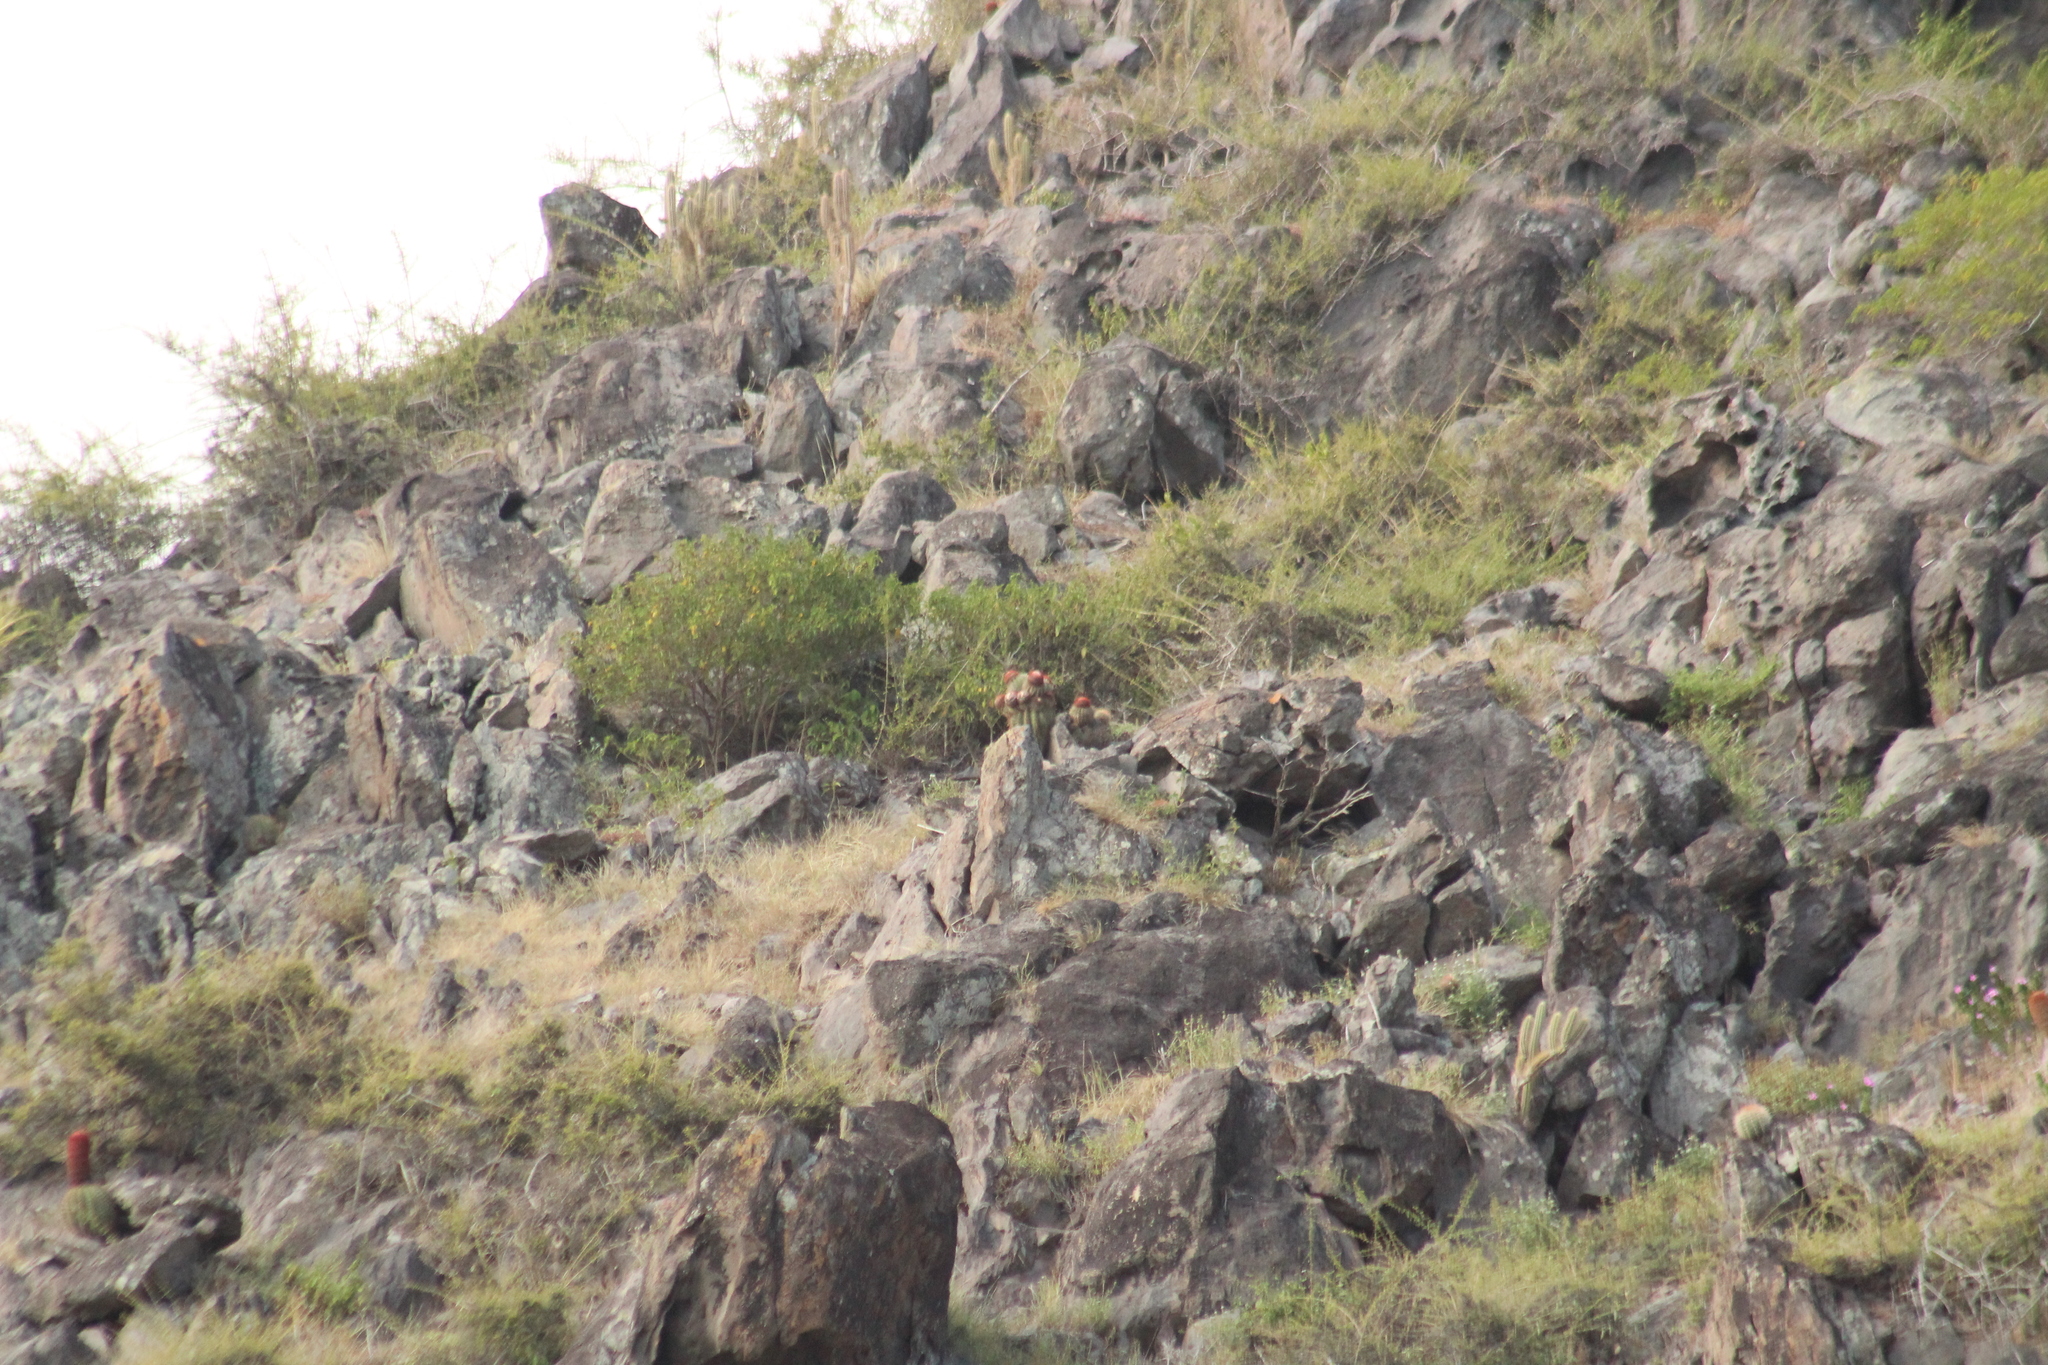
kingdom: Plantae
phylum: Tracheophyta
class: Magnoliopsida
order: Caryophyllales
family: Cactaceae
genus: Melocactus
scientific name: Melocactus intortus
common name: Barrel cactus
